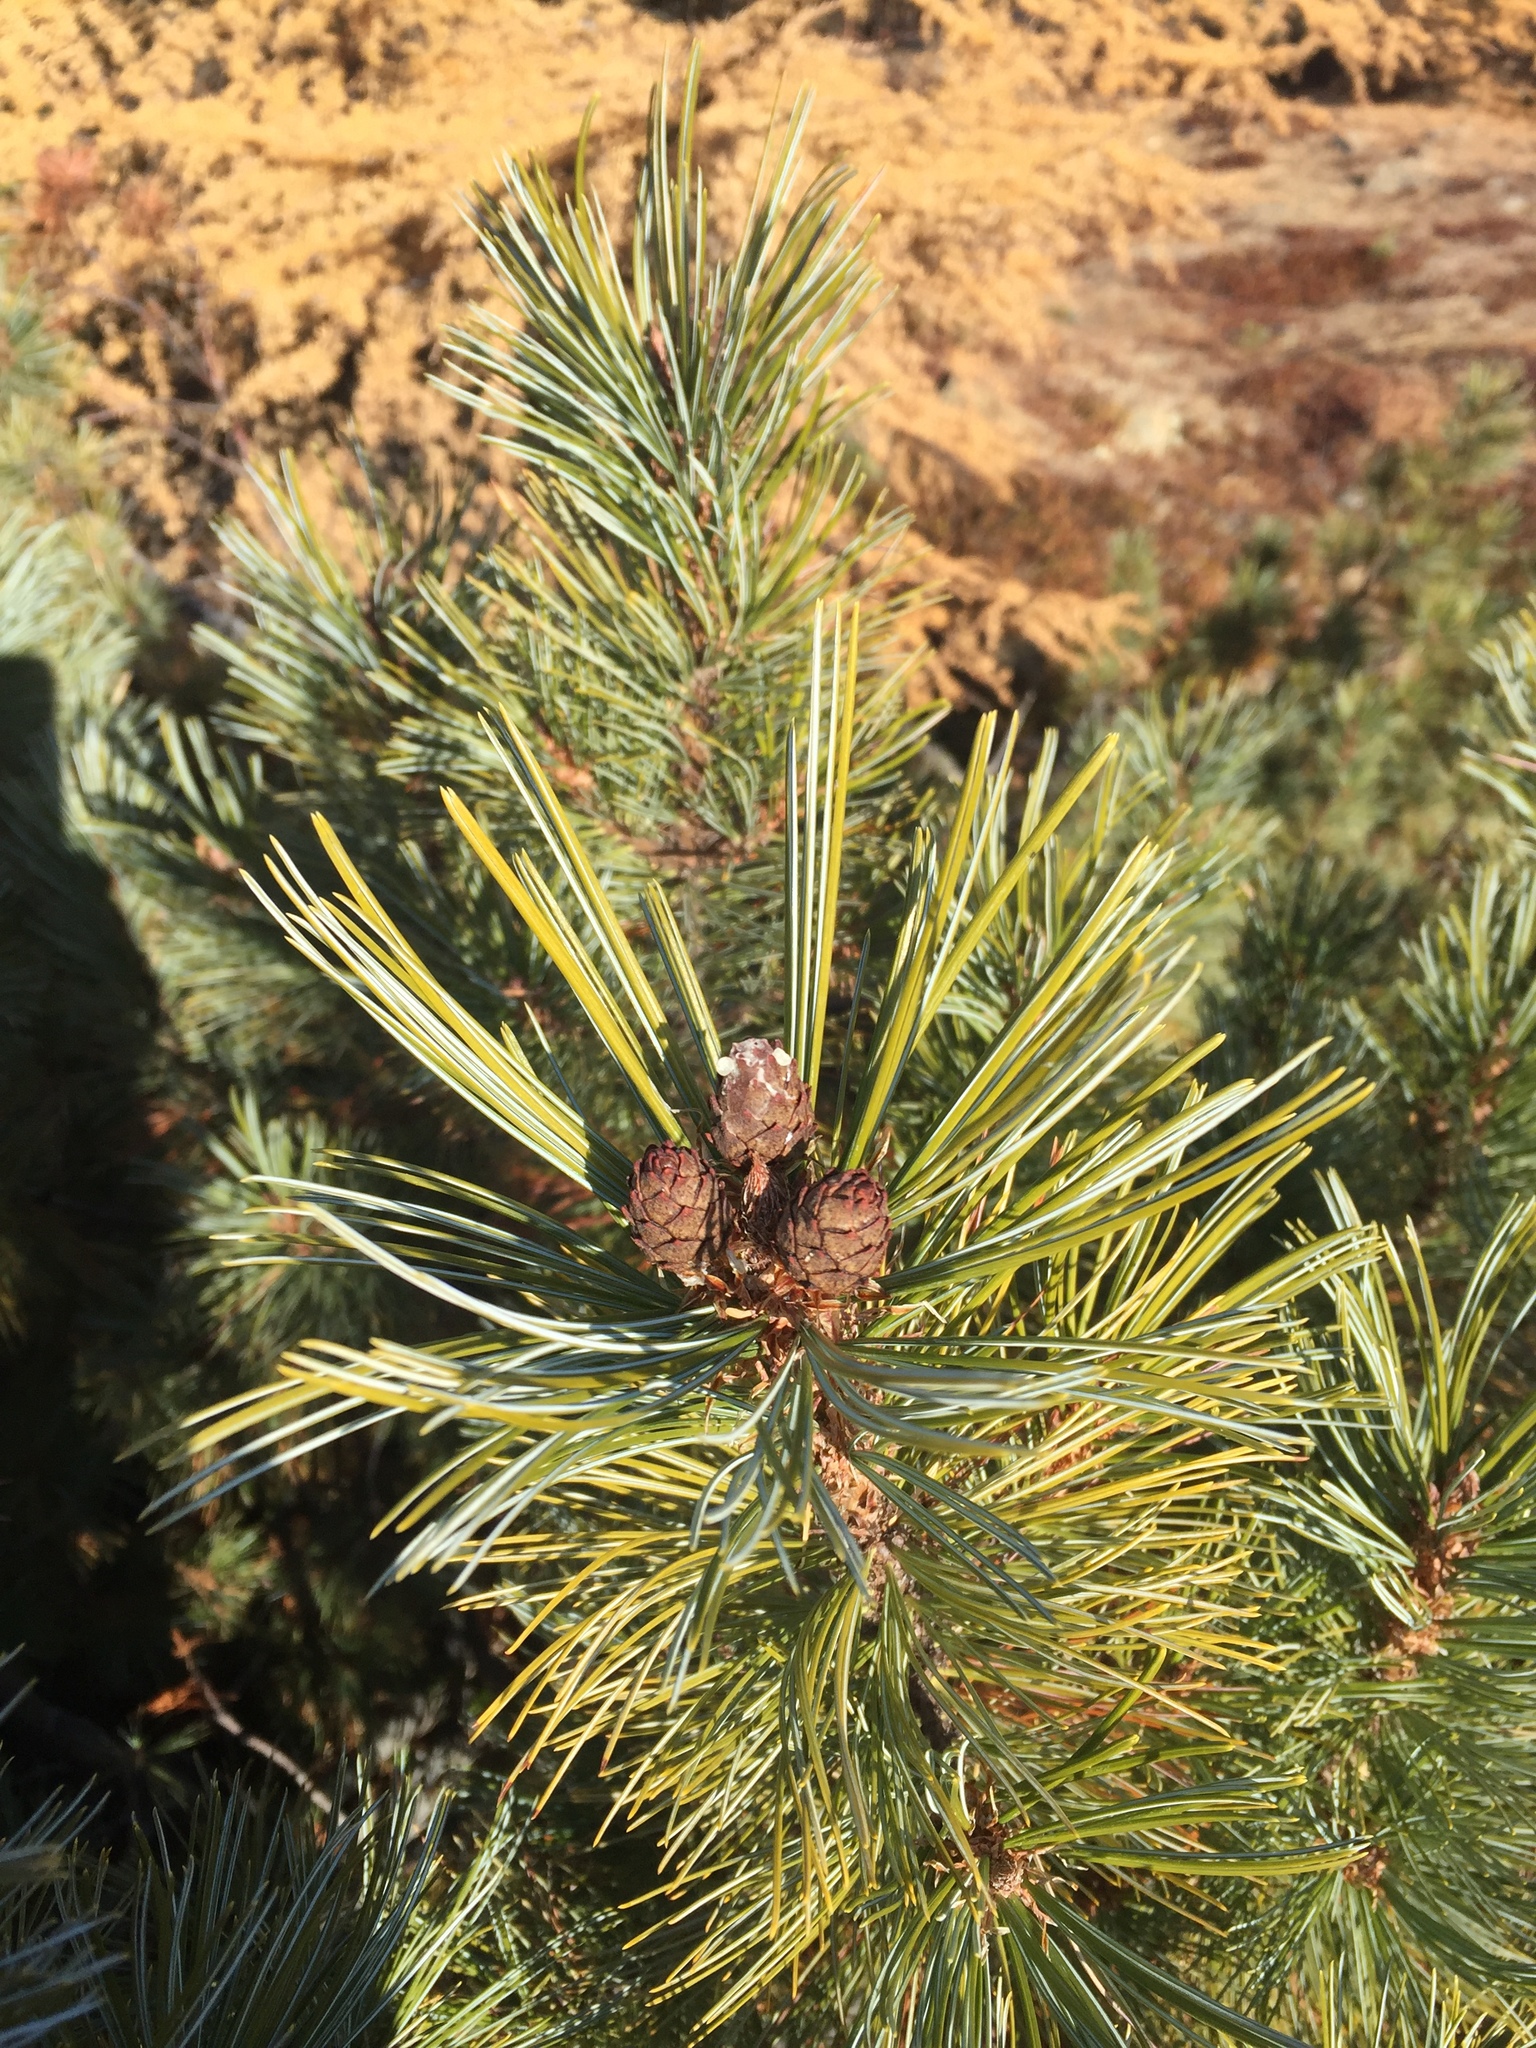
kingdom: Plantae
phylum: Tracheophyta
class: Pinopsida
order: Pinales
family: Pinaceae
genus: Pinus
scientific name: Pinus pumila
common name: Dwarf siberian pine
